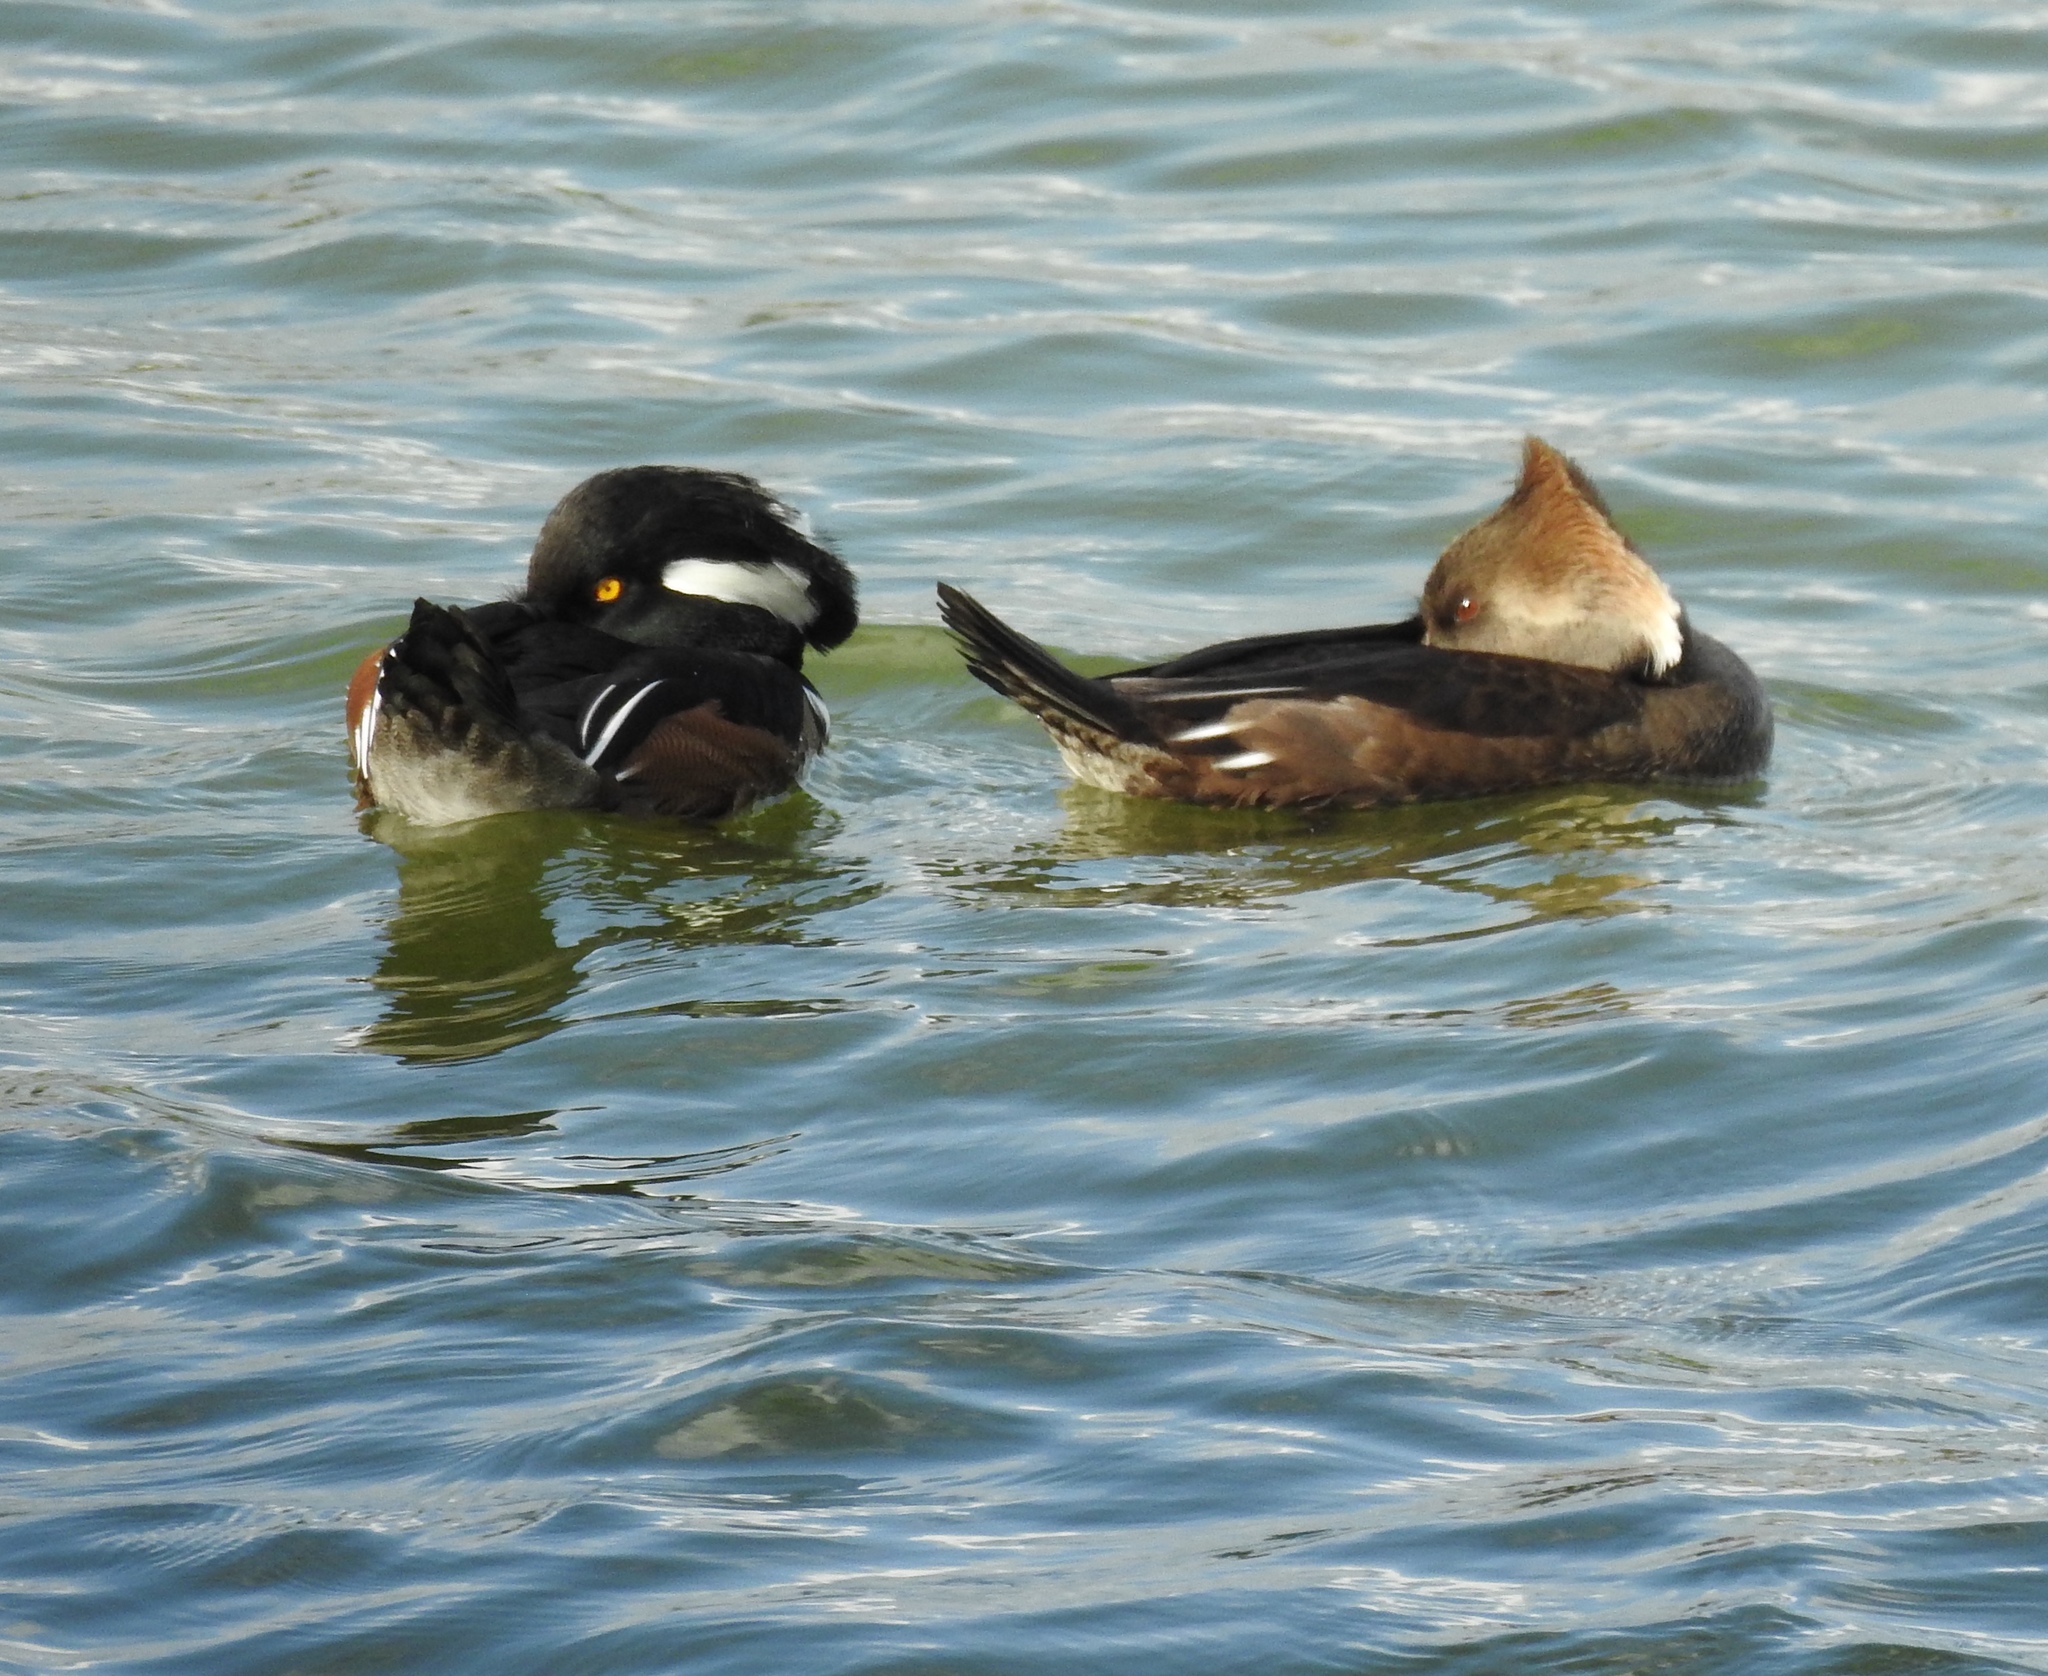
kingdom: Animalia
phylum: Chordata
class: Aves
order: Anseriformes
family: Anatidae
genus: Lophodytes
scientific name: Lophodytes cucullatus
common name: Hooded merganser
